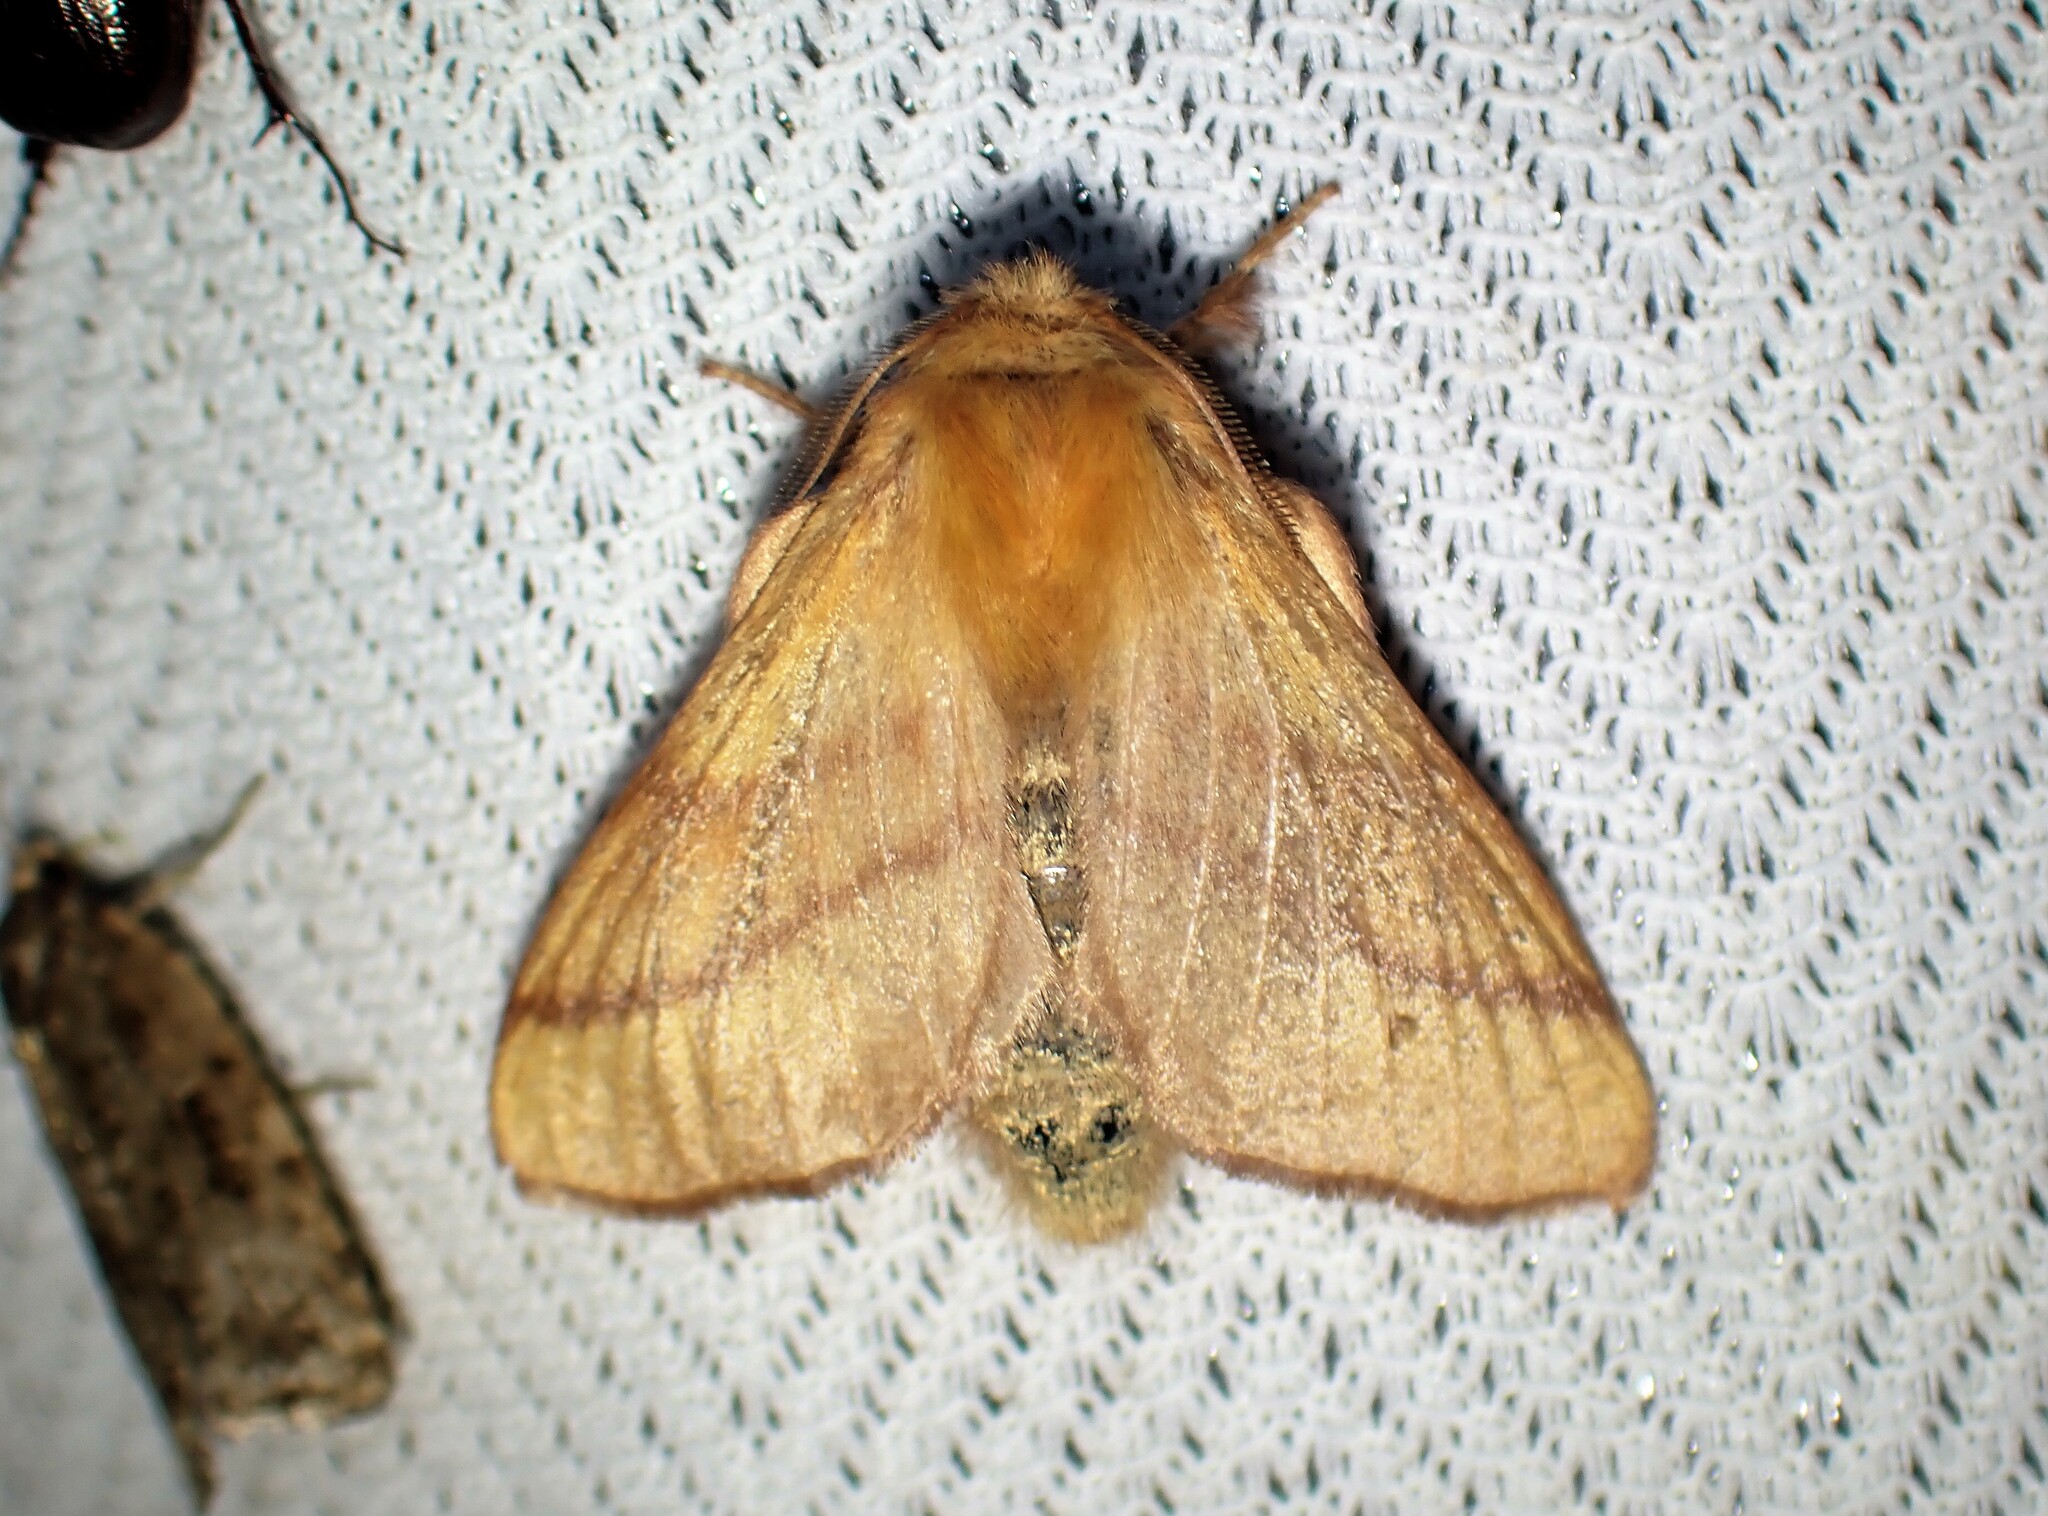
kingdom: Animalia
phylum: Arthropoda
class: Insecta
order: Lepidoptera
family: Lasiocampidae
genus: Malacosoma
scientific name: Malacosoma disstria
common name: Forest tent caterpillar
